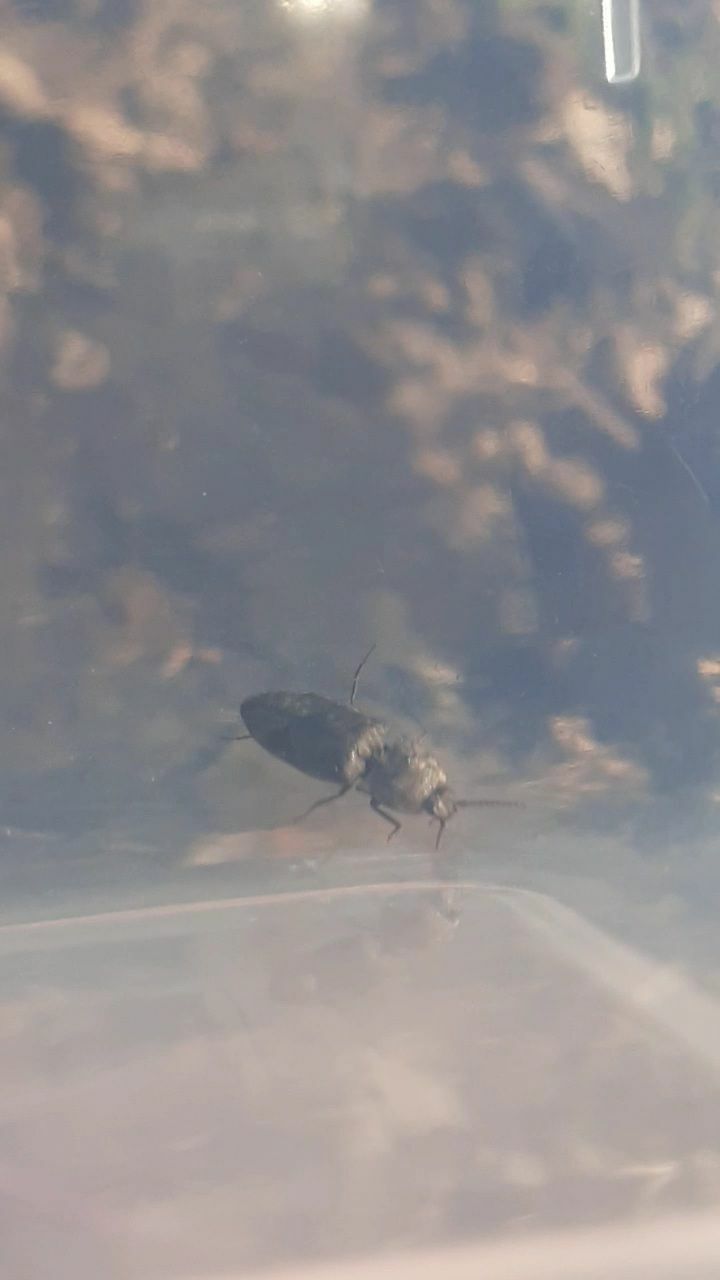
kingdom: Animalia
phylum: Arthropoda
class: Insecta
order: Coleoptera
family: Elateridae
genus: Agrypnus
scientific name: Agrypnus murinus
